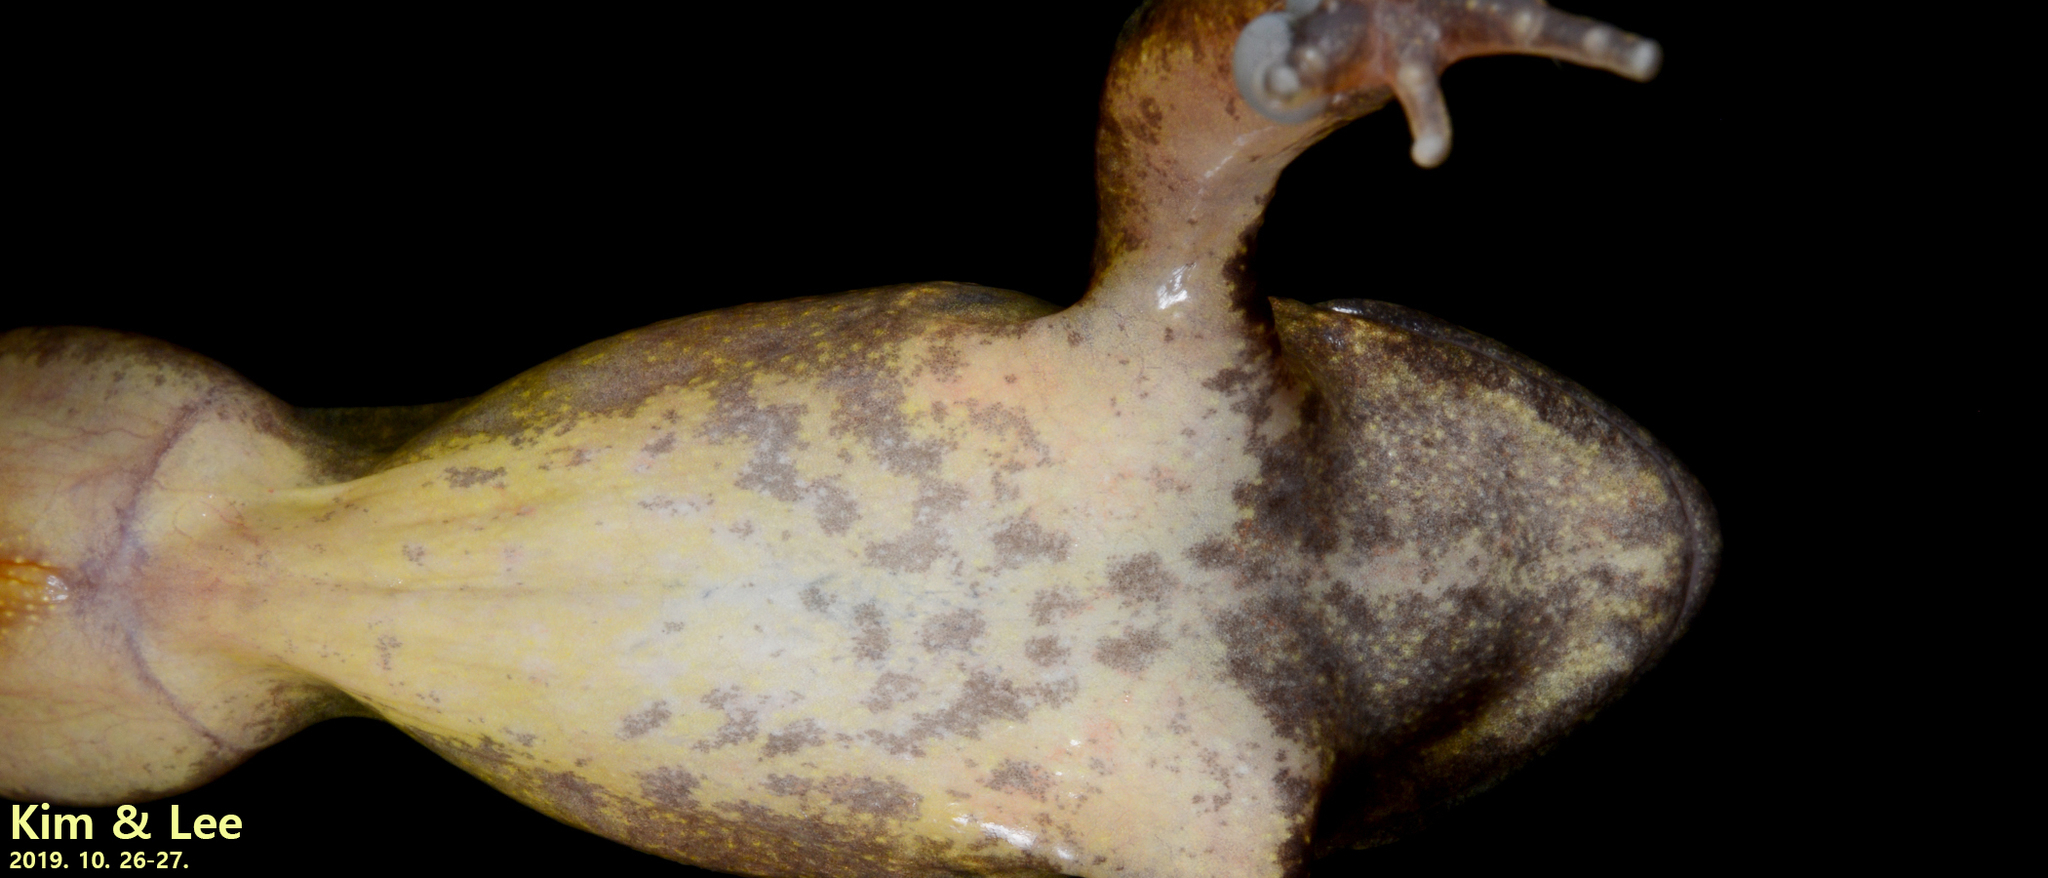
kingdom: Animalia
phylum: Chordata
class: Amphibia
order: Anura
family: Ranidae
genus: Rana
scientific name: Rana huanrenensis
